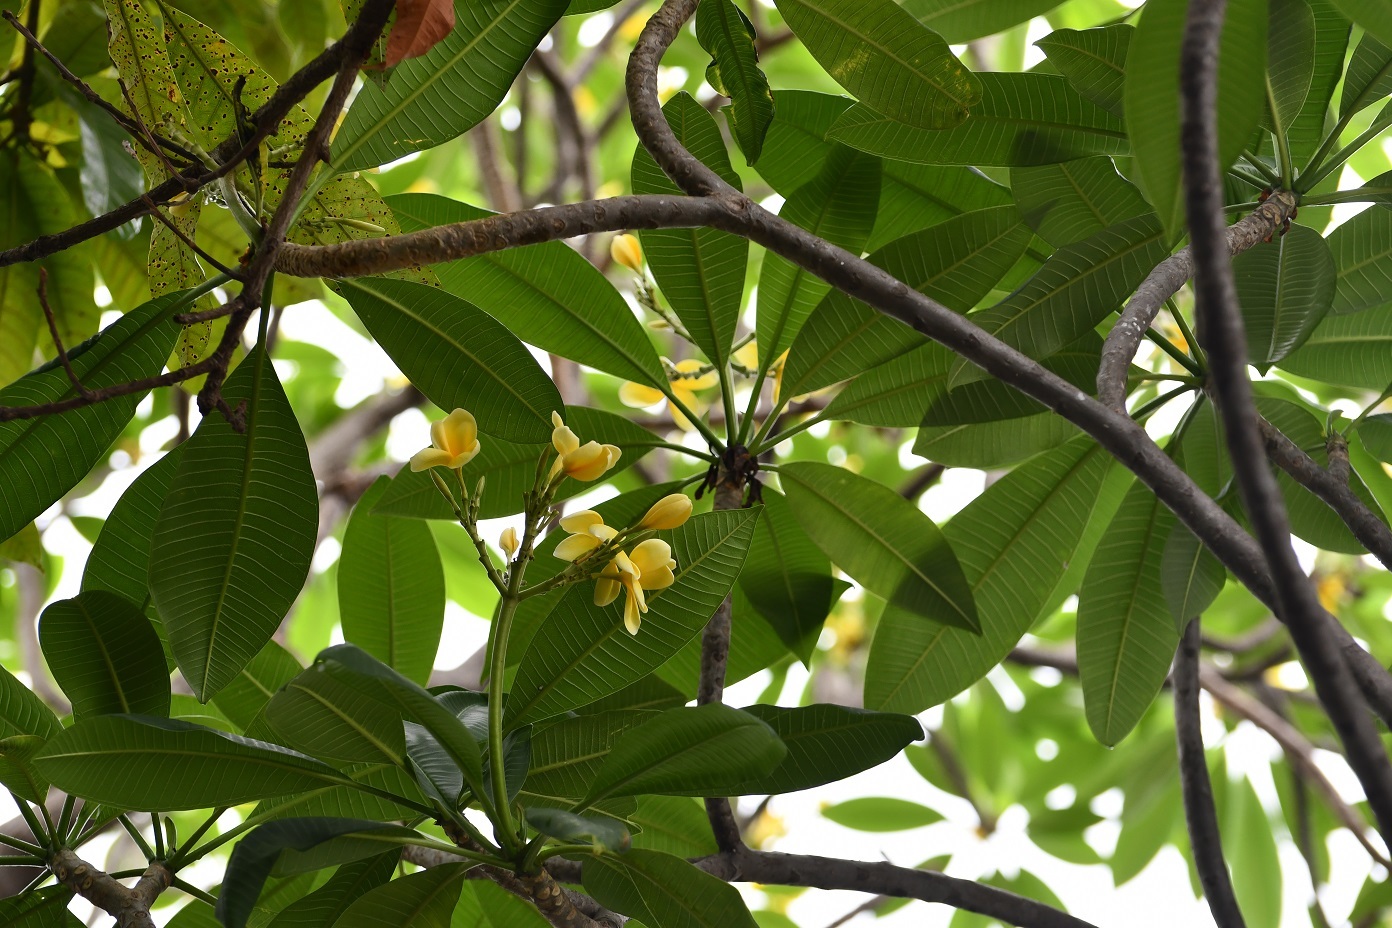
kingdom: Plantae
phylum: Tracheophyta
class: Magnoliopsida
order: Gentianales
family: Apocynaceae
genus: Plumeria
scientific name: Plumeria rubra
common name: Pagoda-tree
